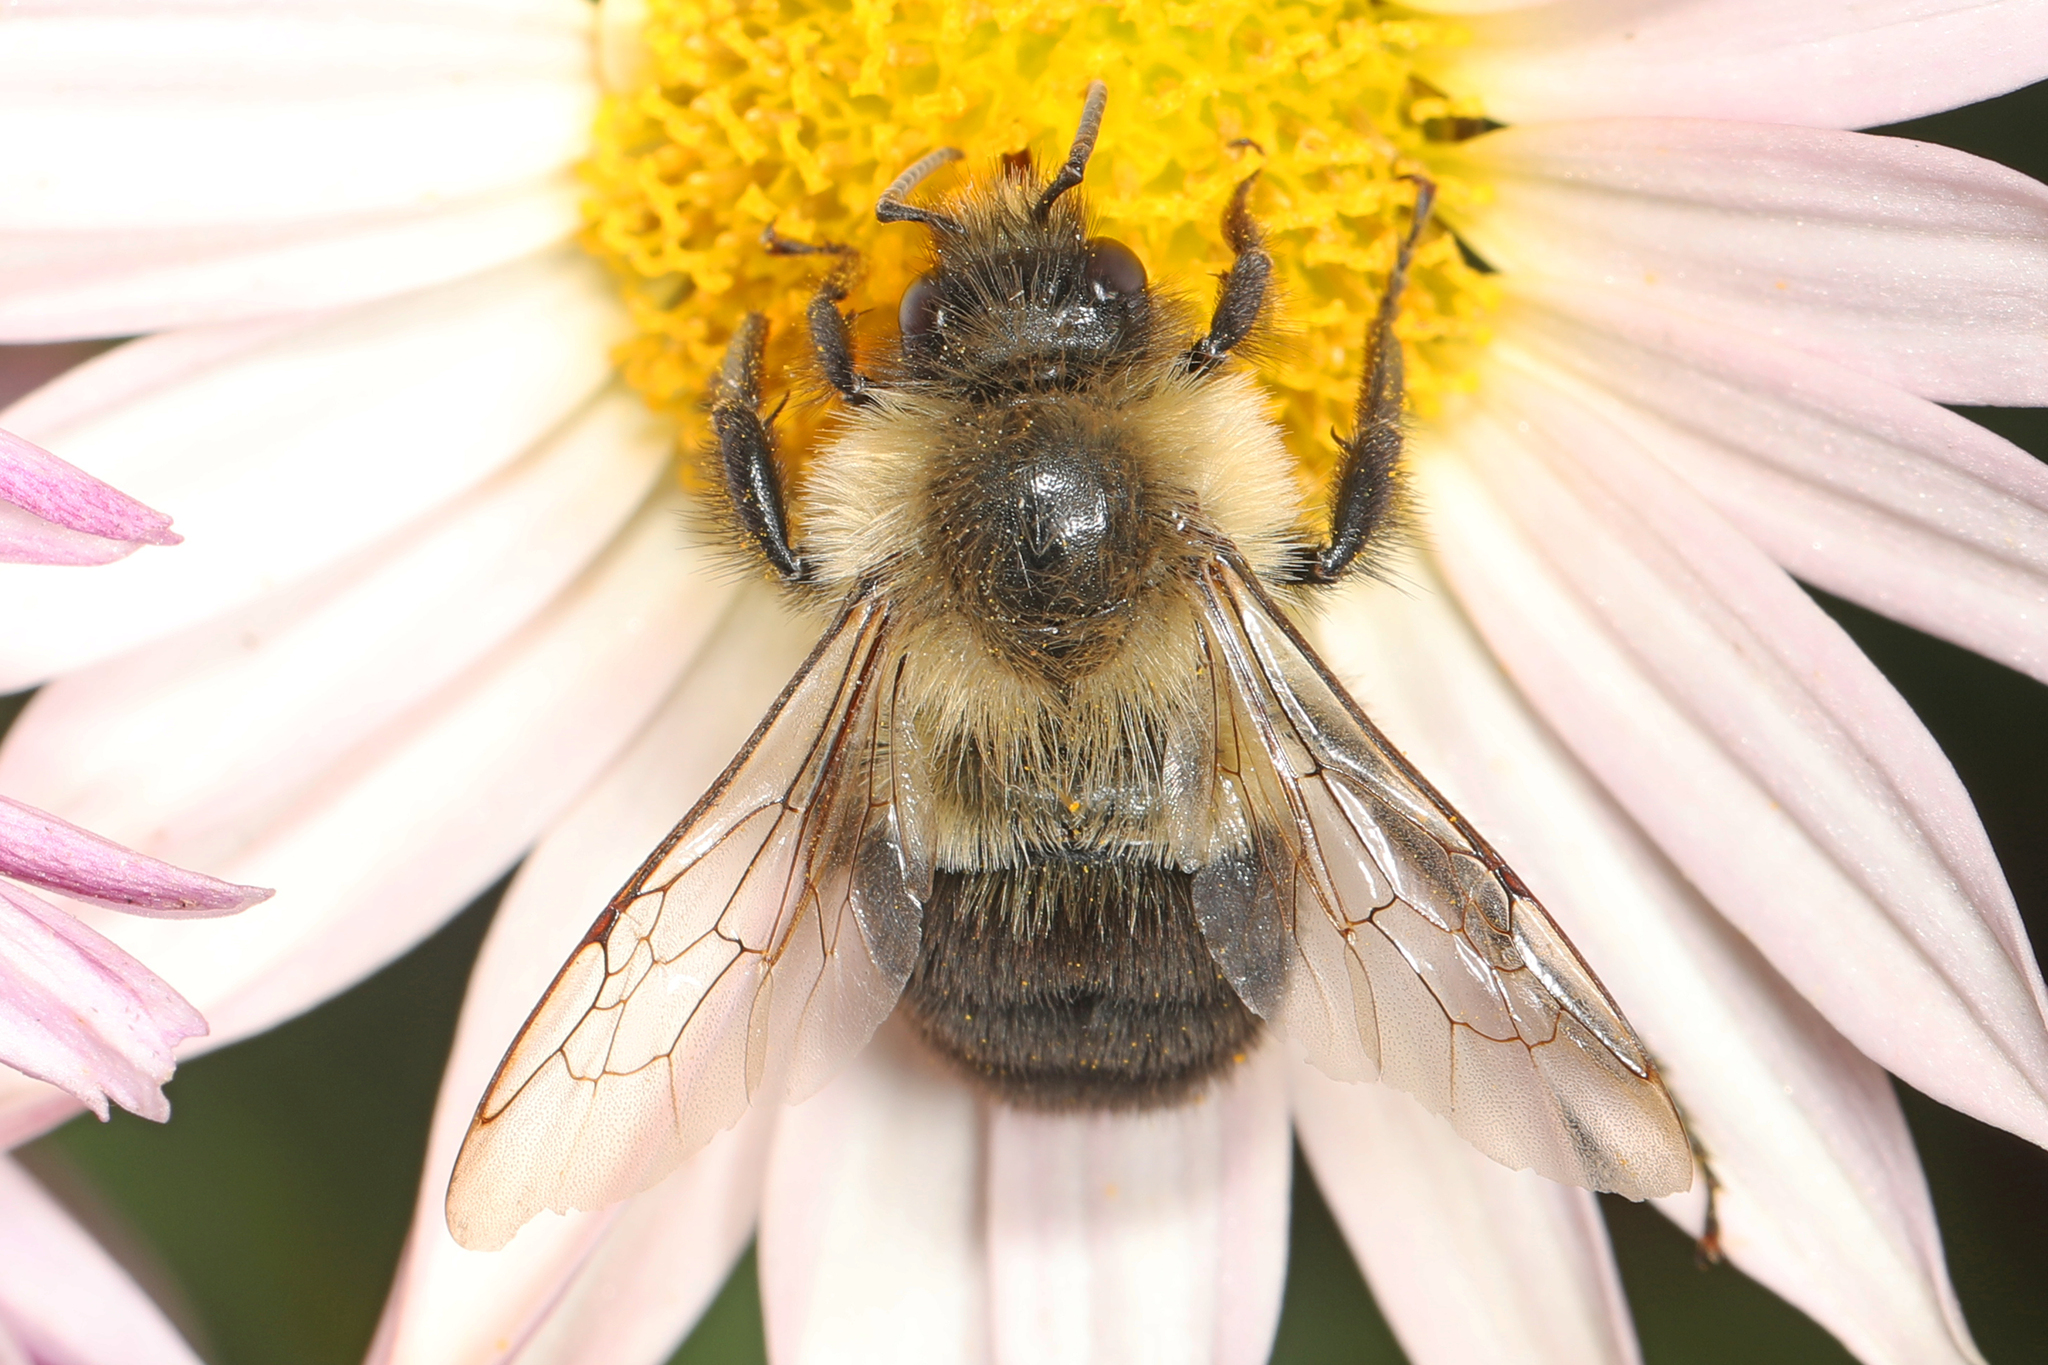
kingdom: Animalia
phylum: Arthropoda
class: Insecta
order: Hymenoptera
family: Apidae
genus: Bombus
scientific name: Bombus impatiens
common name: Common eastern bumble bee
